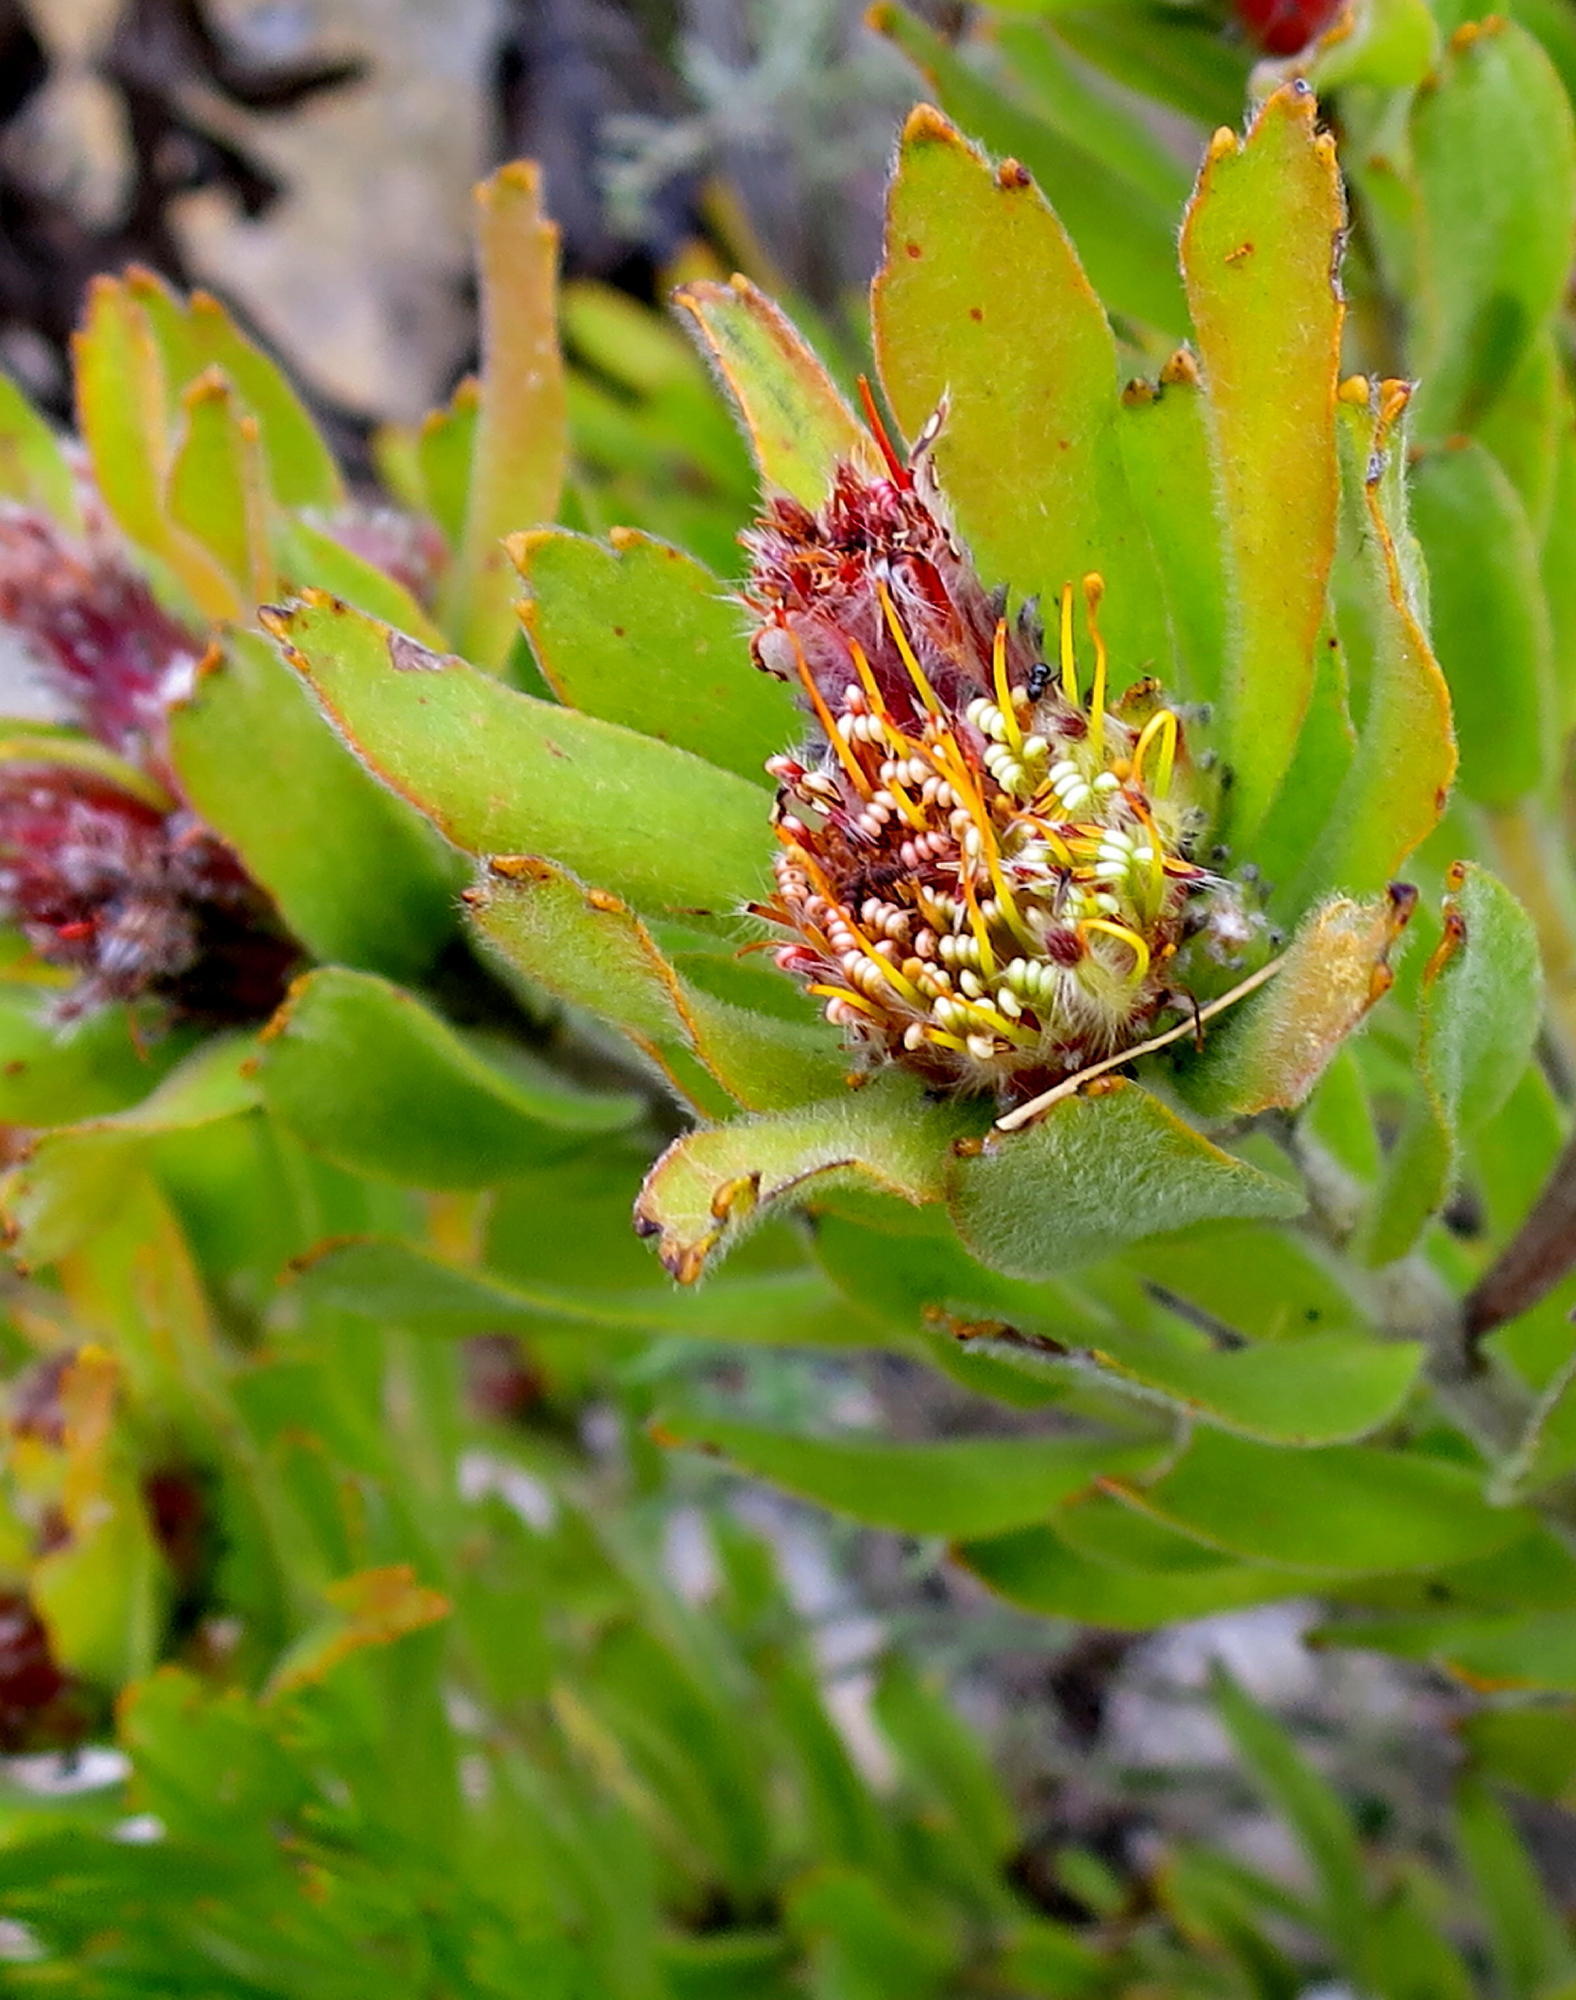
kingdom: Plantae
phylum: Tracheophyta
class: Magnoliopsida
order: Proteales
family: Proteaceae
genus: Leucospermum
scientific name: Leucospermum oleifolium
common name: Matches
